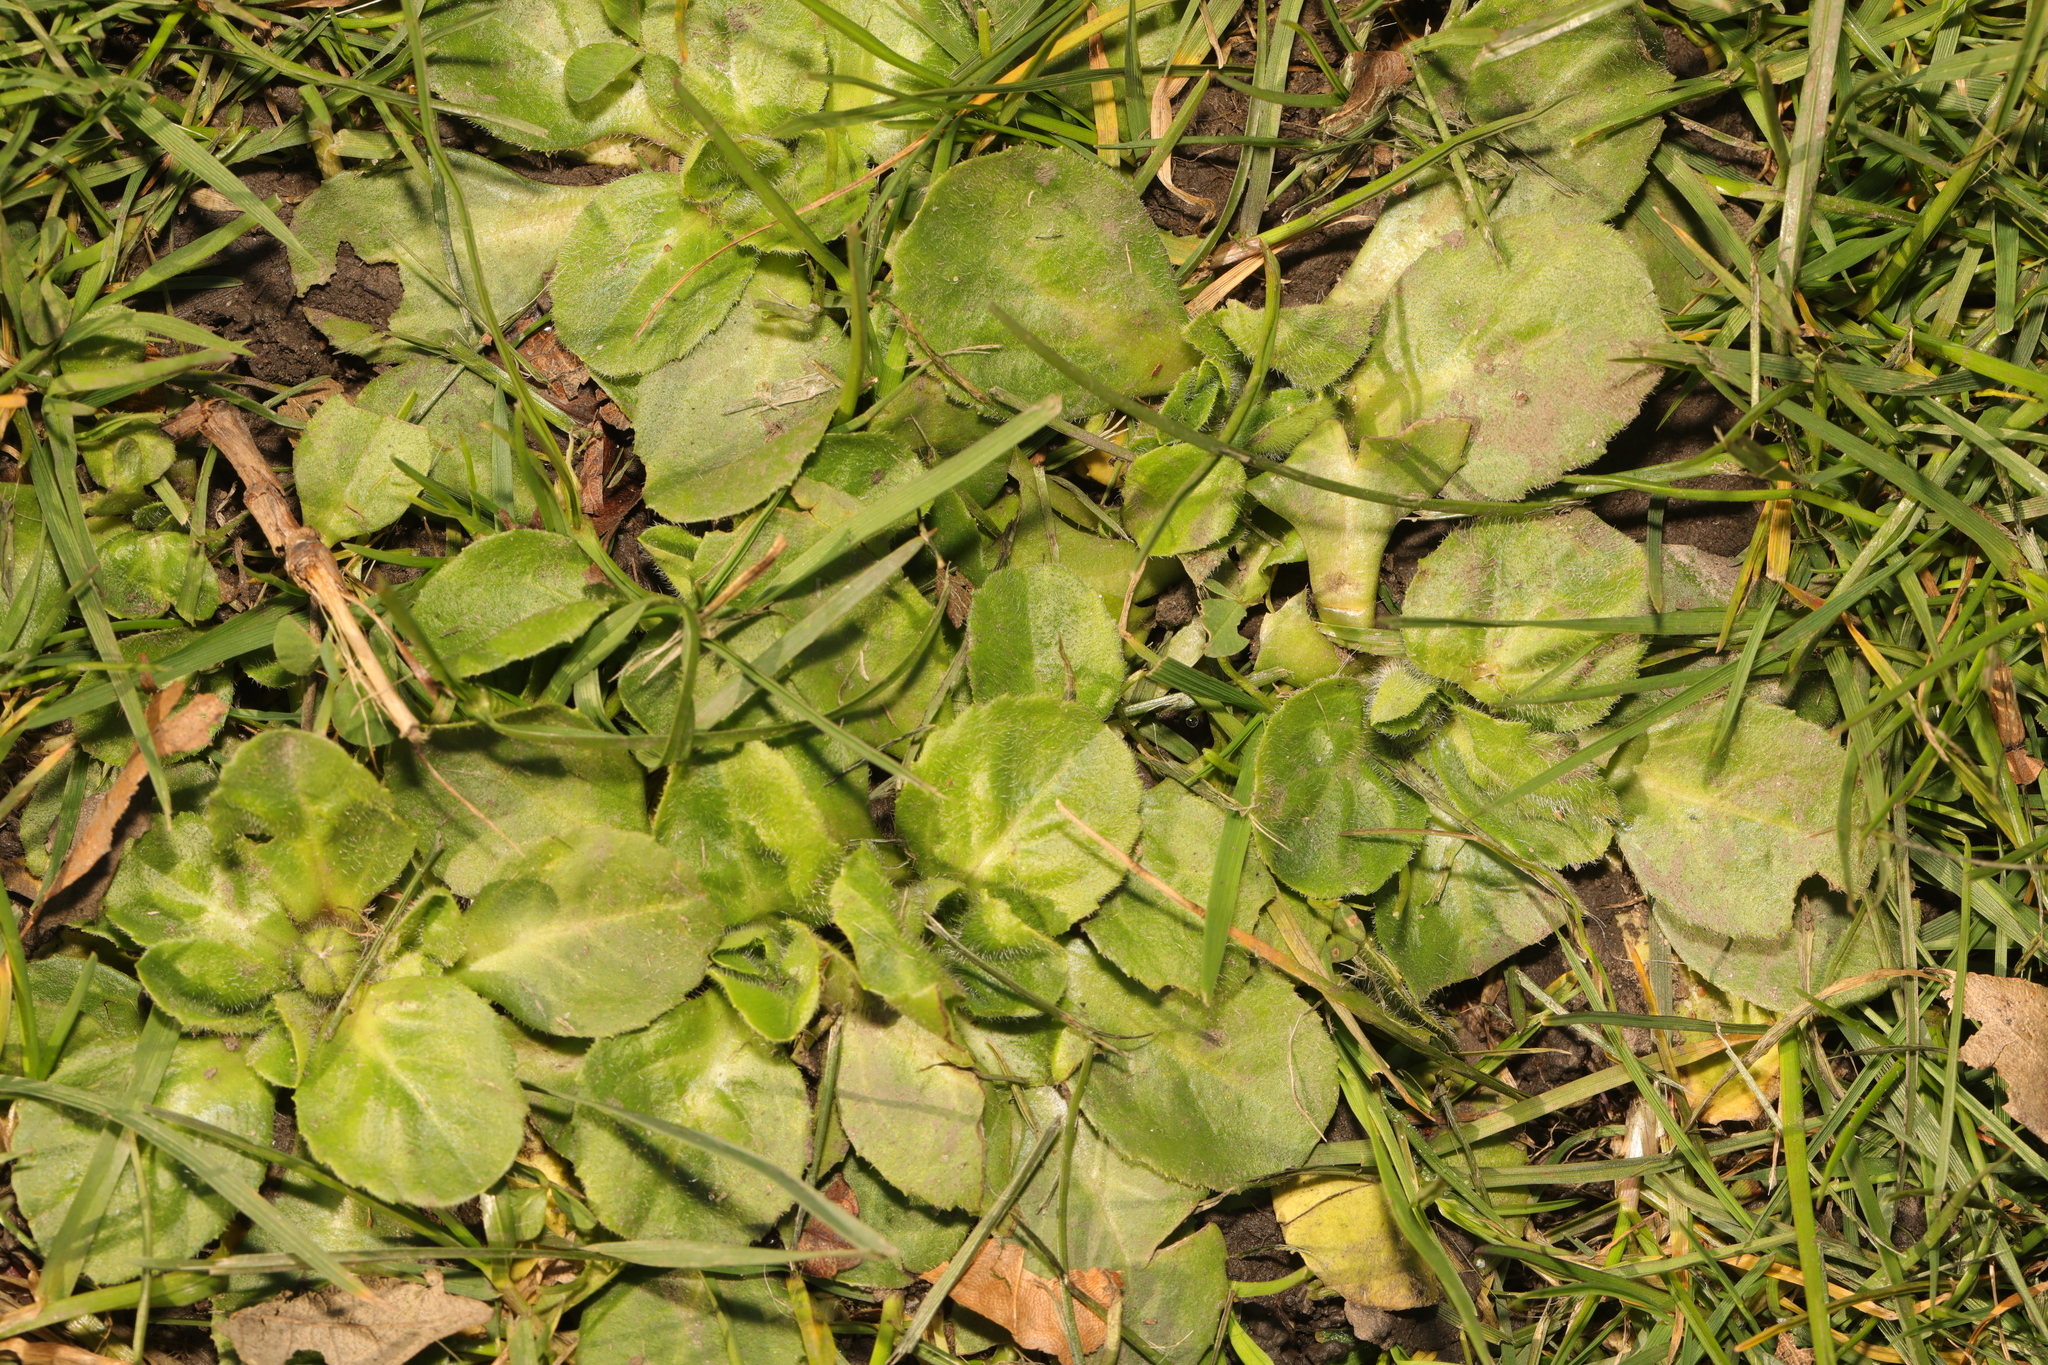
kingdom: Plantae
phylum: Tracheophyta
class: Magnoliopsida
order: Asterales
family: Asteraceae
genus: Bellis
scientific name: Bellis perennis
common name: Lawndaisy
